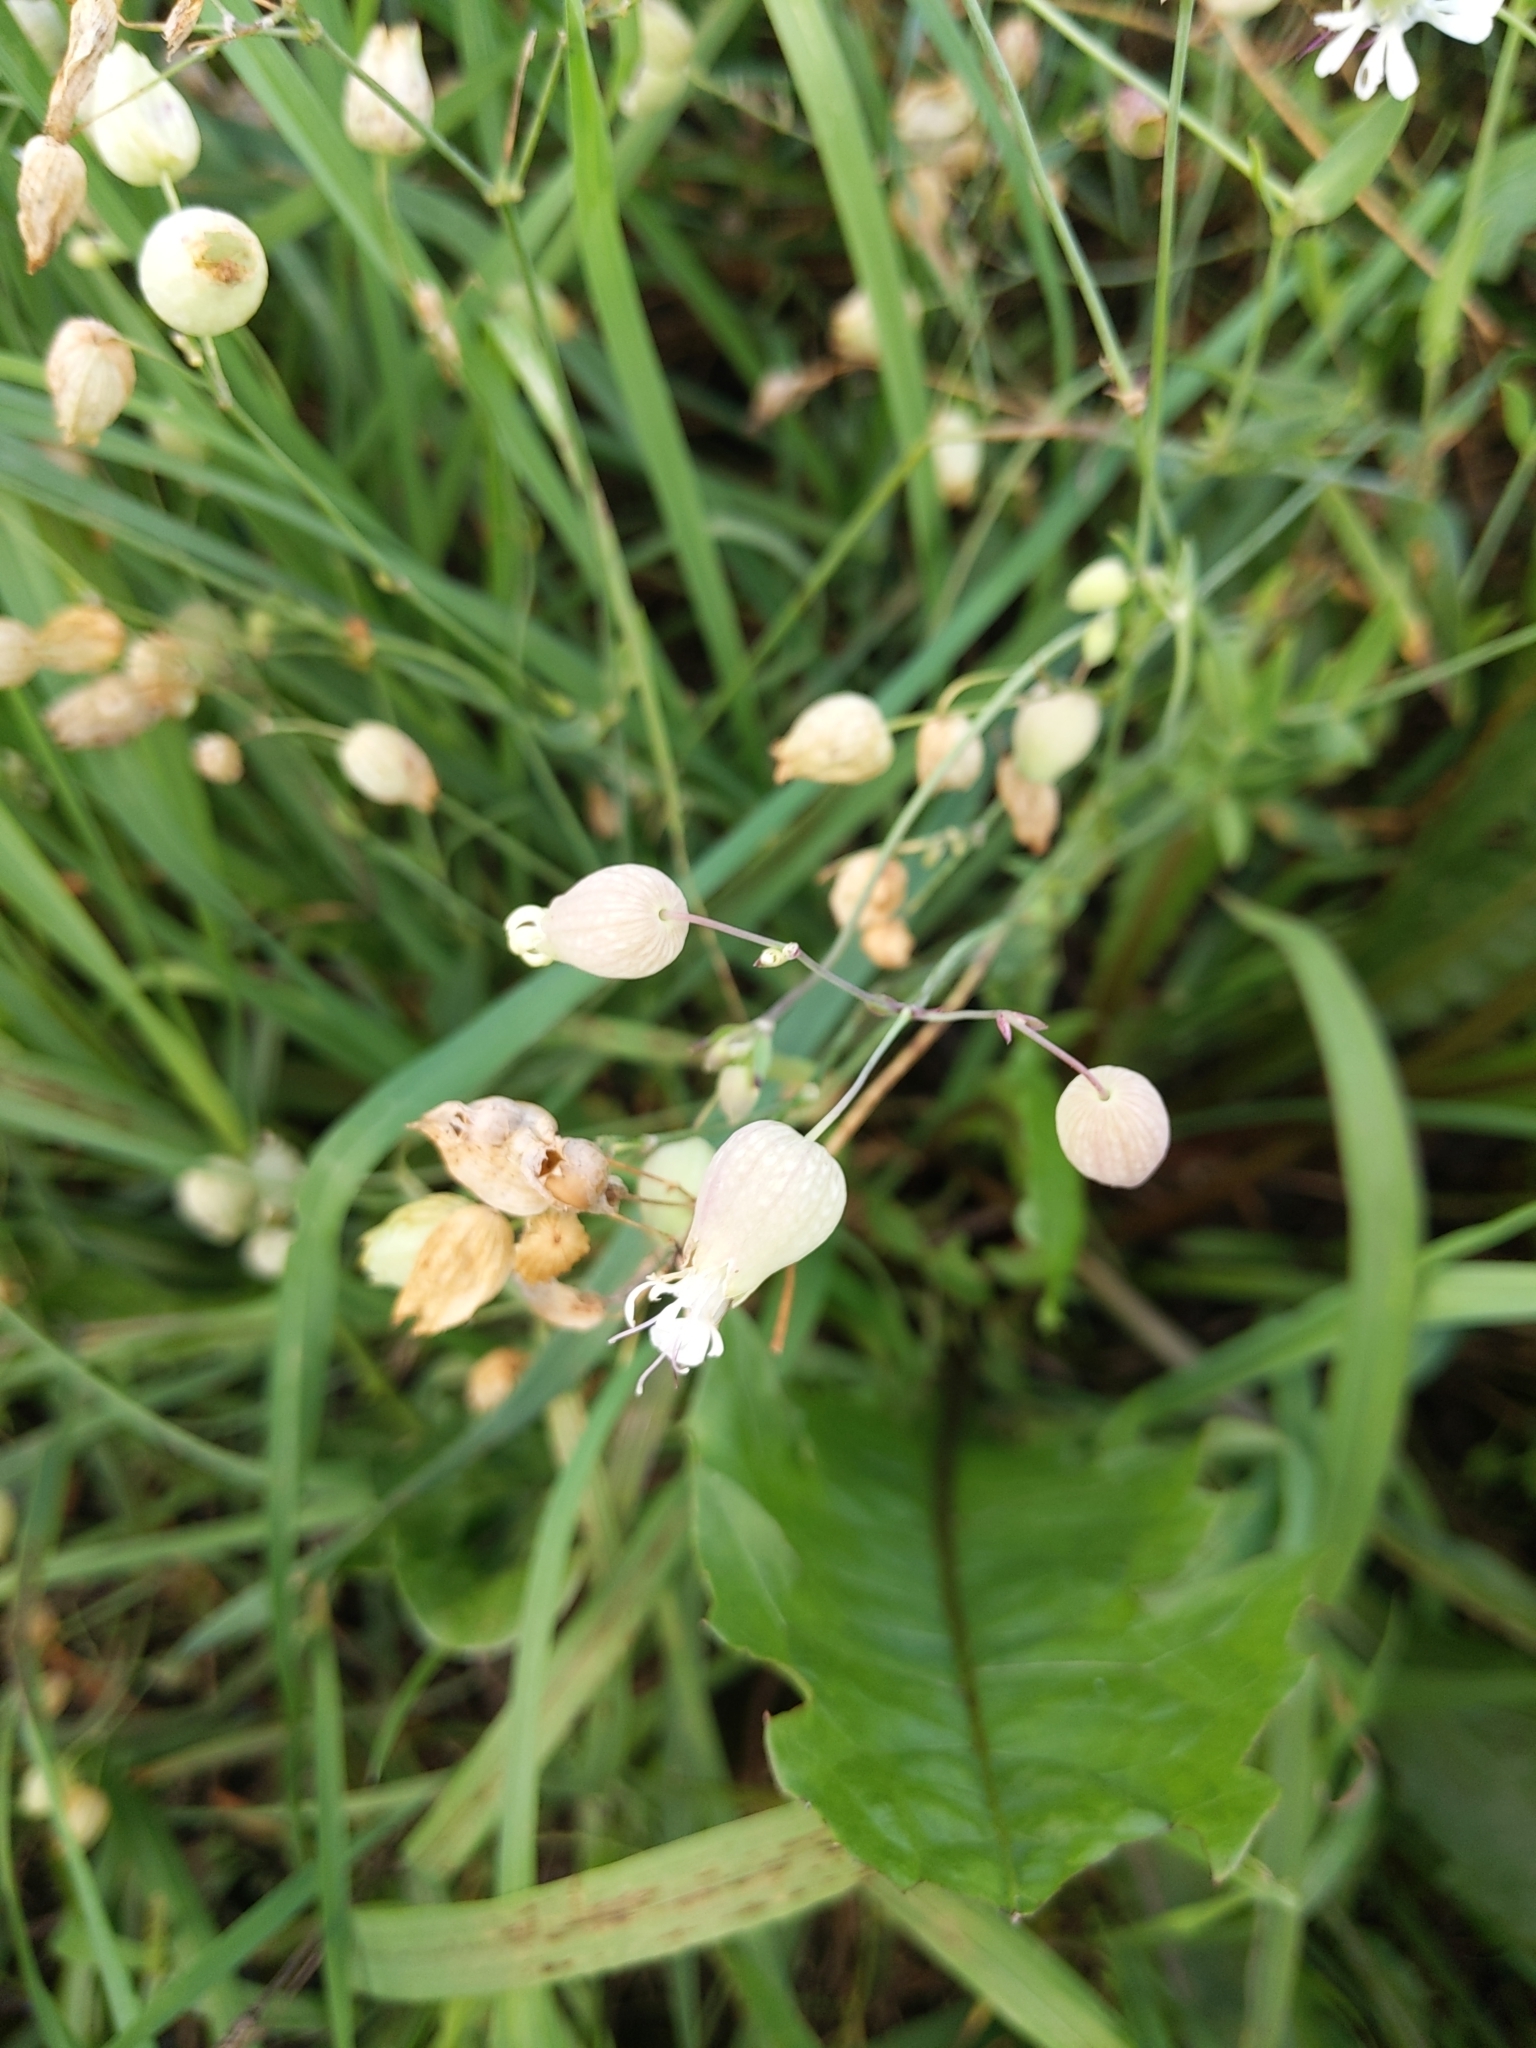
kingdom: Plantae
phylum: Tracheophyta
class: Magnoliopsida
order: Caryophyllales
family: Caryophyllaceae
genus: Silene
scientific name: Silene vulgaris
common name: Bladder campion
